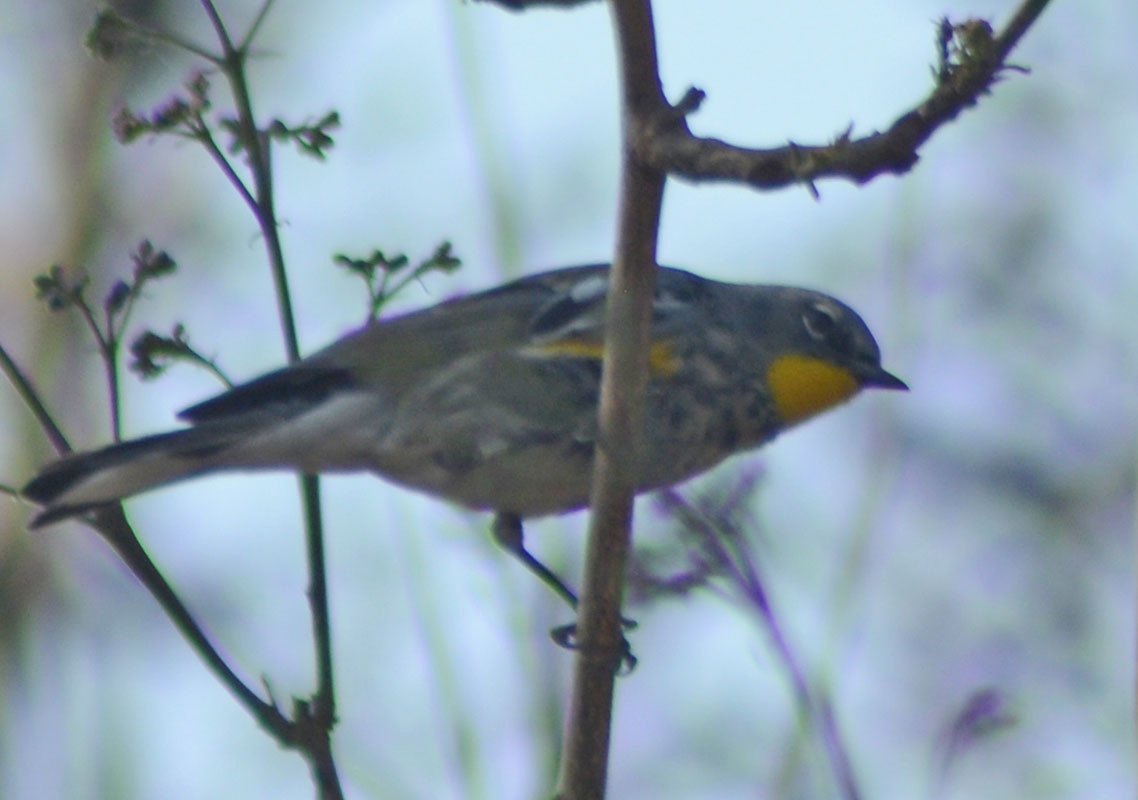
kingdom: Animalia
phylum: Chordata
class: Aves
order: Passeriformes
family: Parulidae
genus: Setophaga
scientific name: Setophaga auduboni
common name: Audubon's warbler
